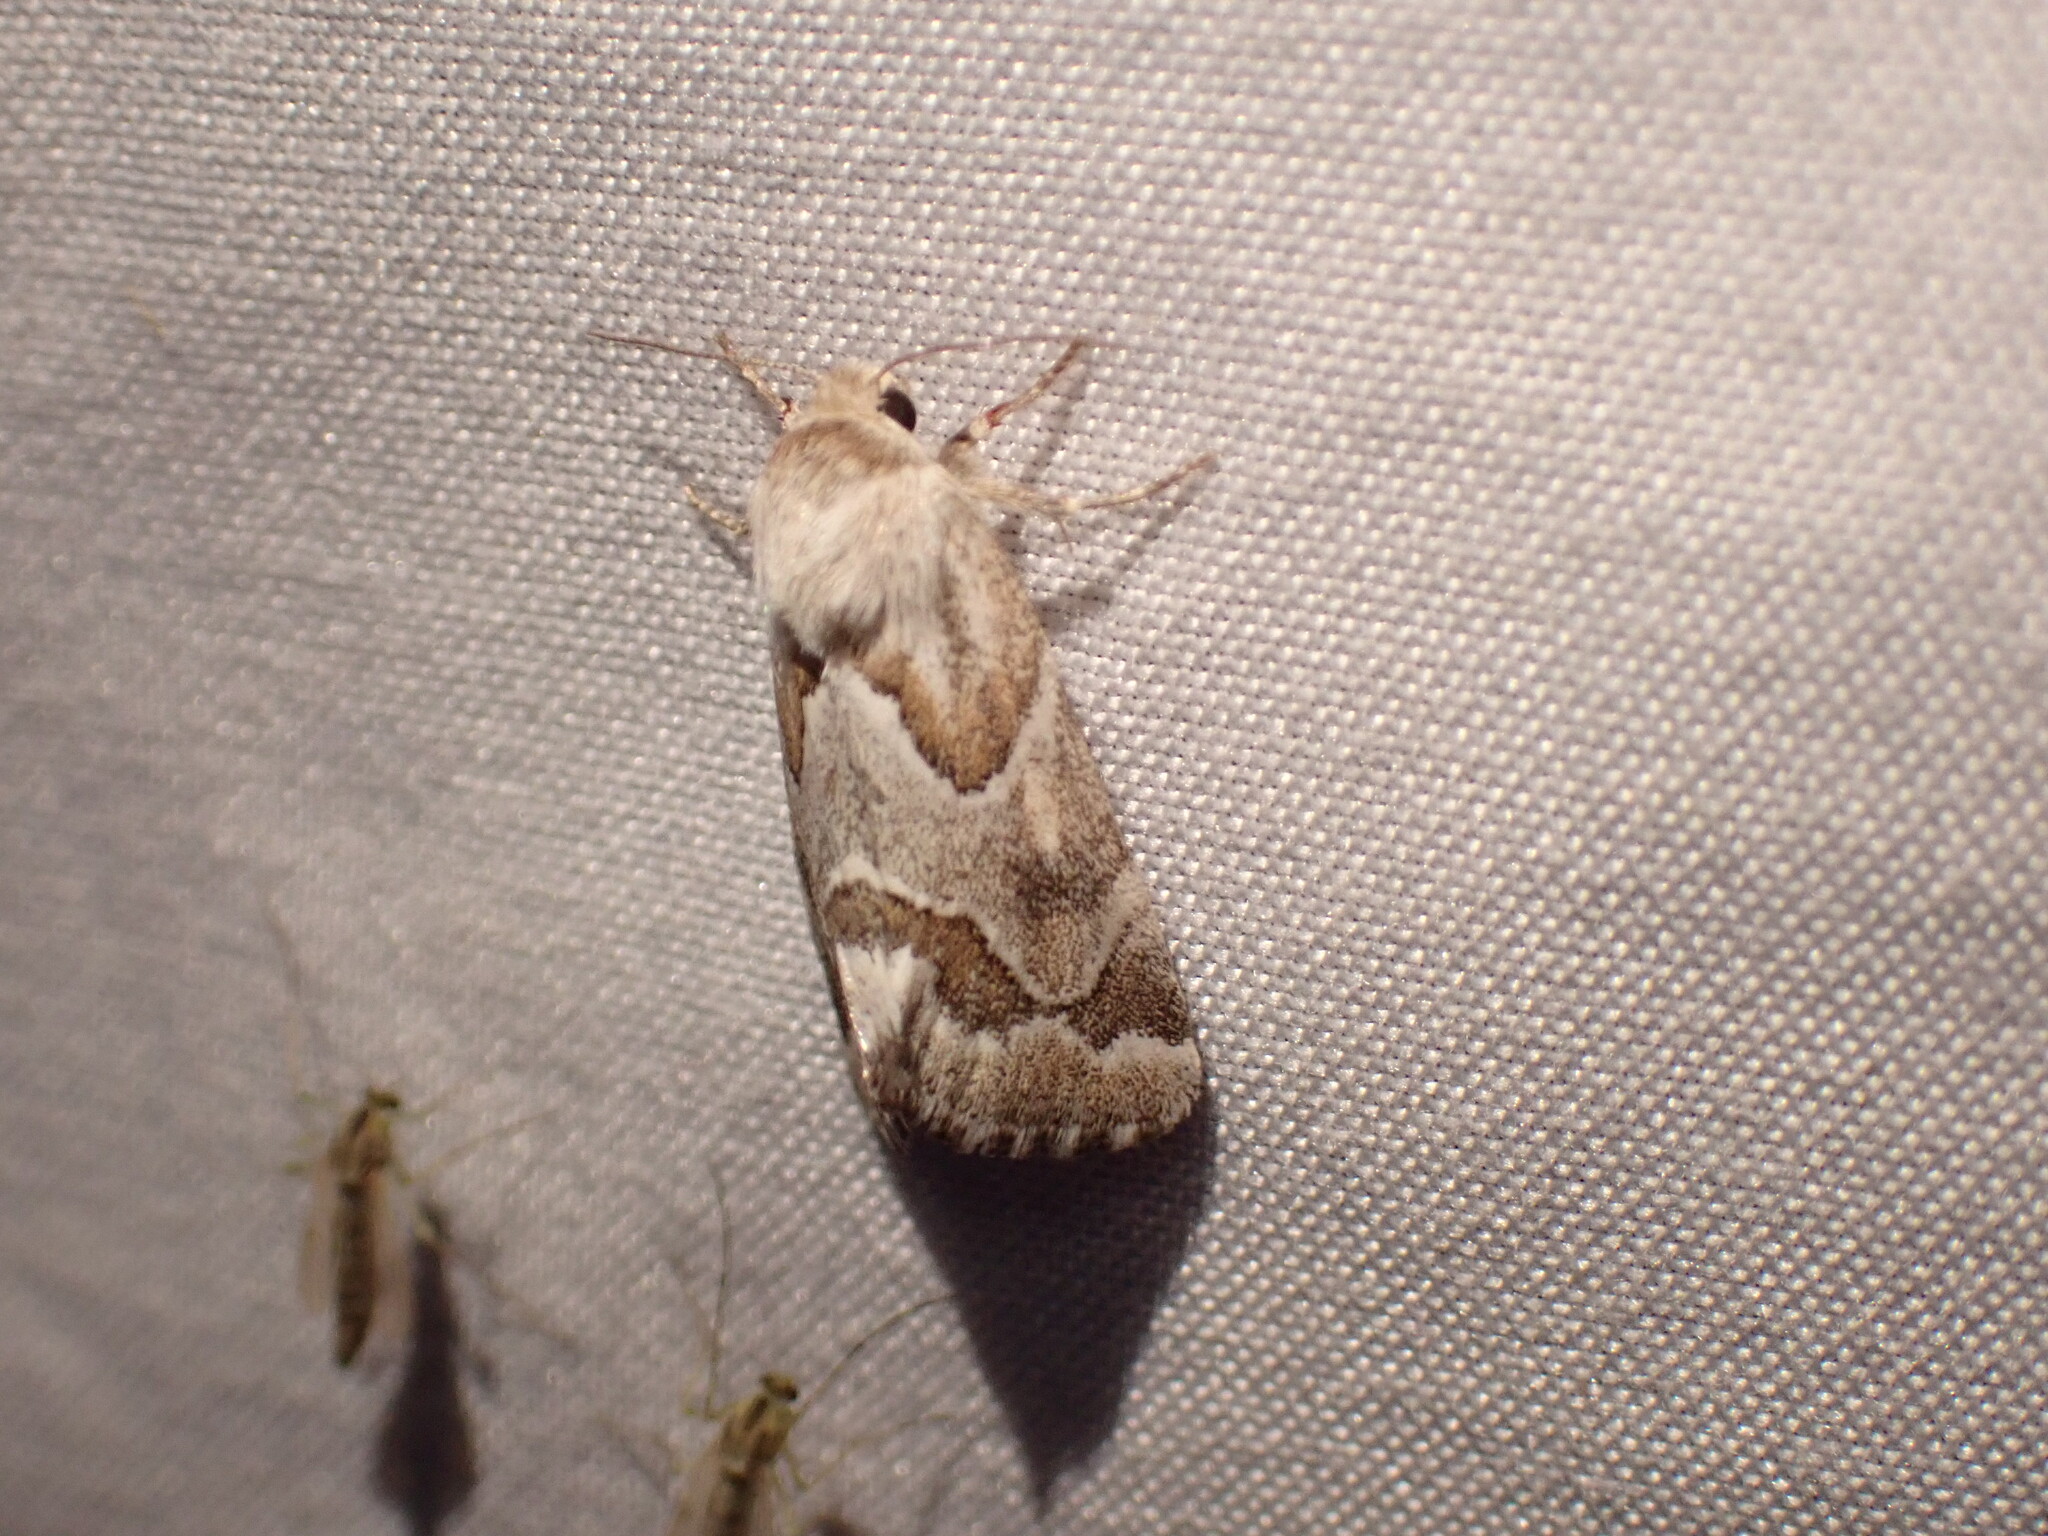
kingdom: Animalia
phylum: Arthropoda
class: Insecta
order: Lepidoptera
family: Noctuidae
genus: Schinia
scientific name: Schinia acutilinea
